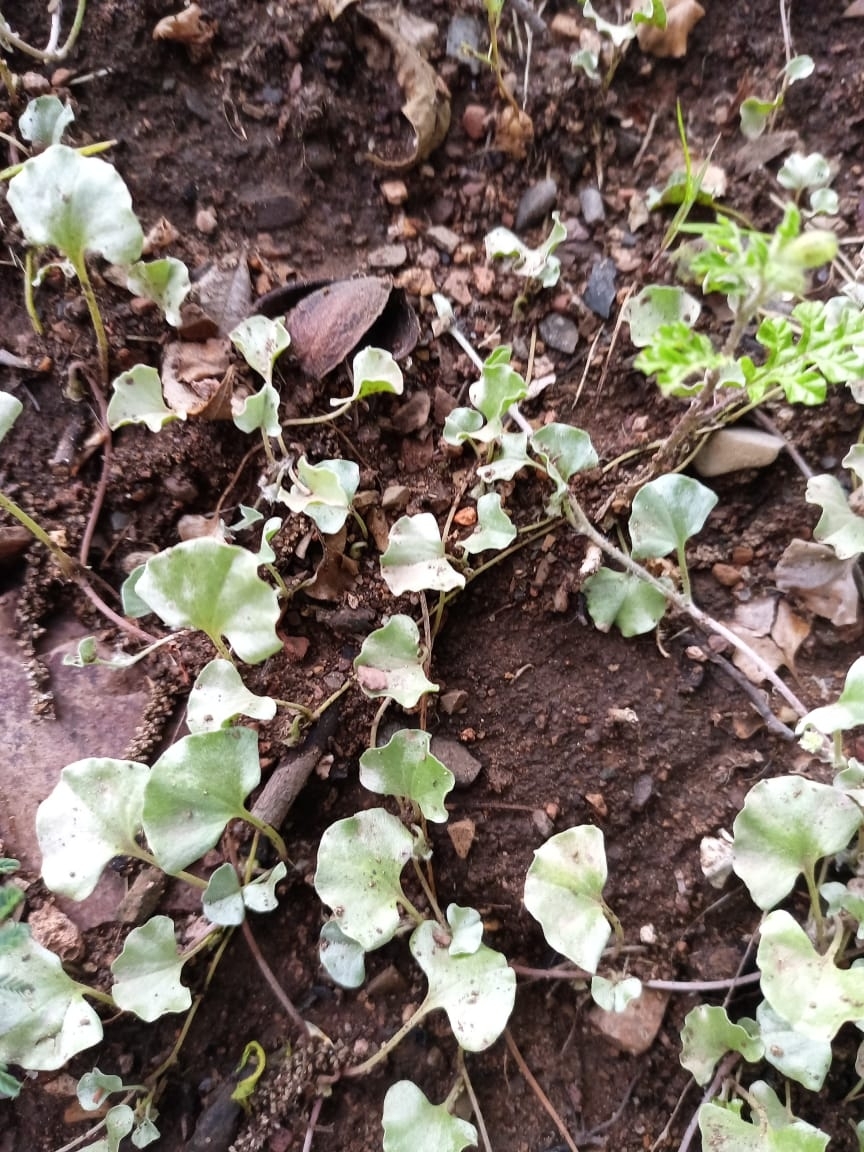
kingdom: Plantae
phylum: Tracheophyta
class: Magnoliopsida
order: Solanales
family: Convolvulaceae
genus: Dichondra
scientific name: Dichondra argentea
